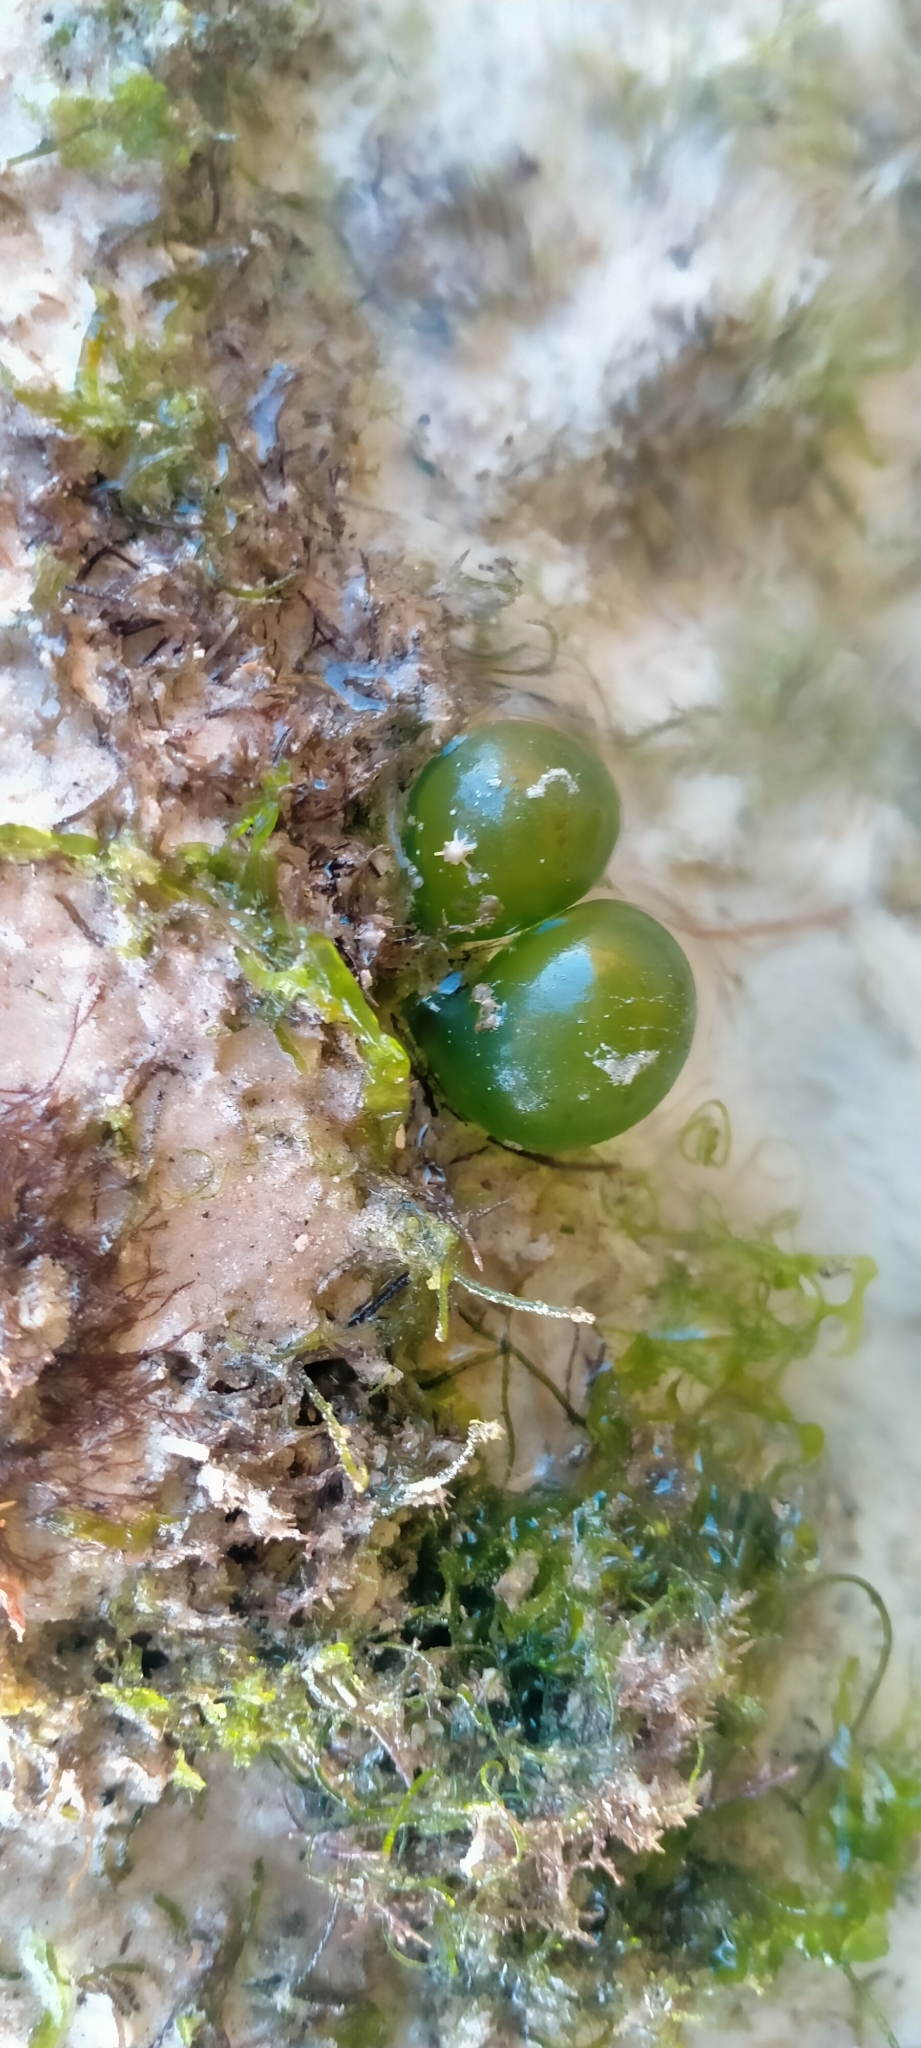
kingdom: Plantae
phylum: Chlorophyta
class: Ulvophyceae
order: Siphonocladales
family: Valoniaceae
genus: Valonia
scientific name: Valonia ventricosa
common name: Sea pearl
